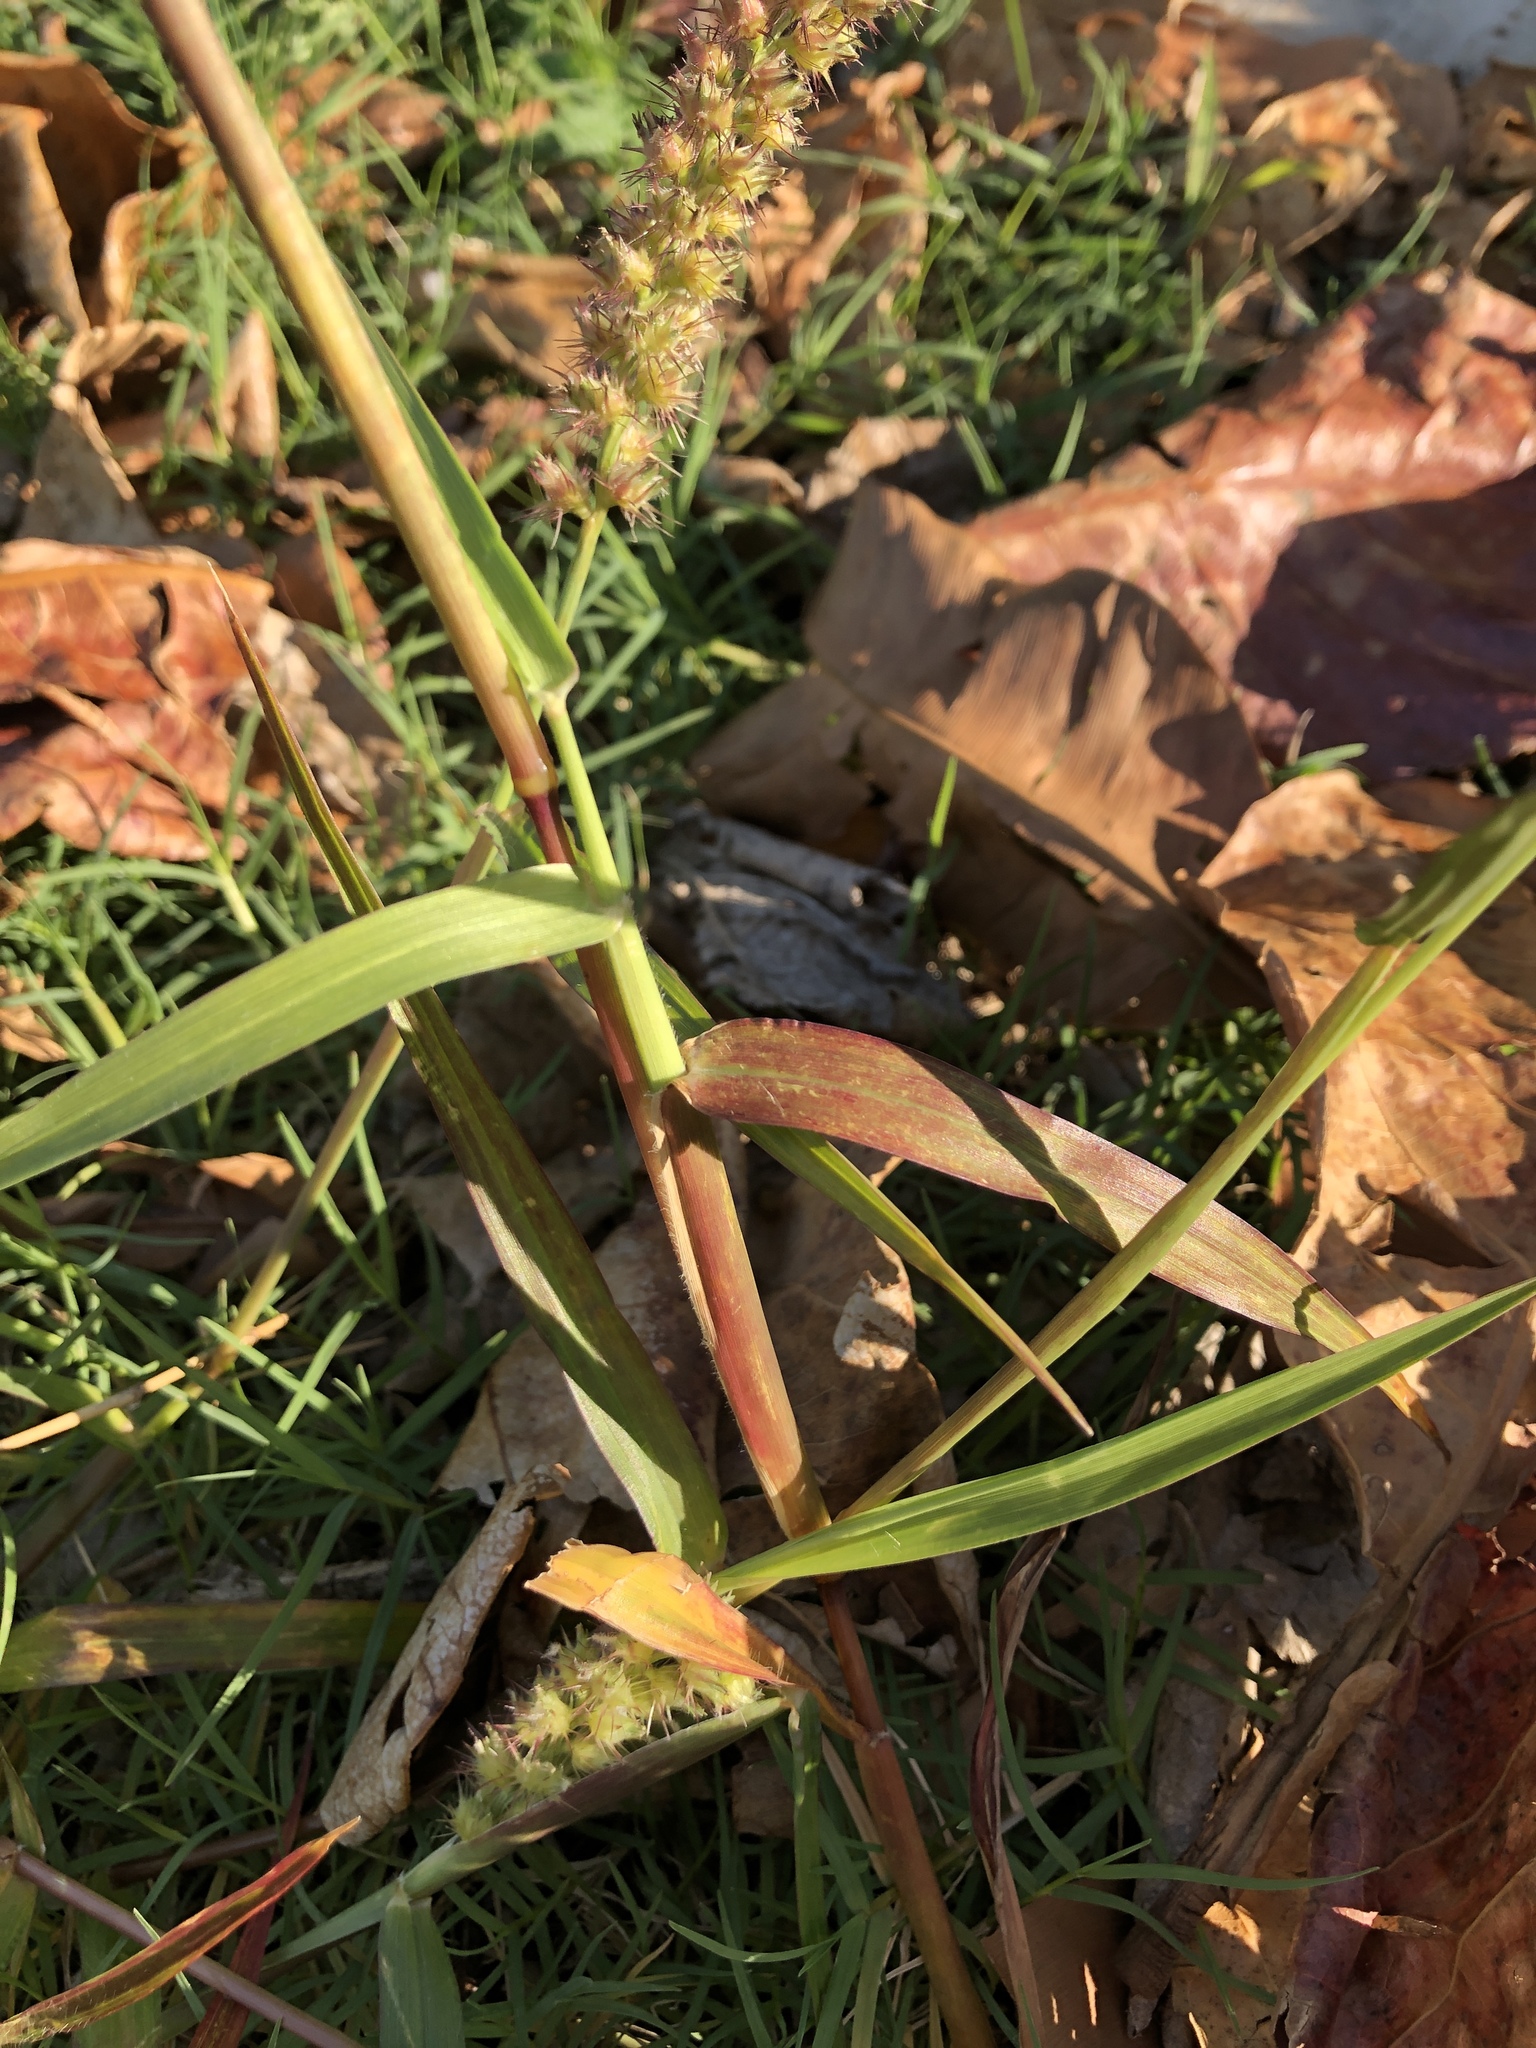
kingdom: Plantae
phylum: Tracheophyta
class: Liliopsida
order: Poales
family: Poaceae
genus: Cenchrus
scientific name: Cenchrus echinatus
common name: Southern sandbur
